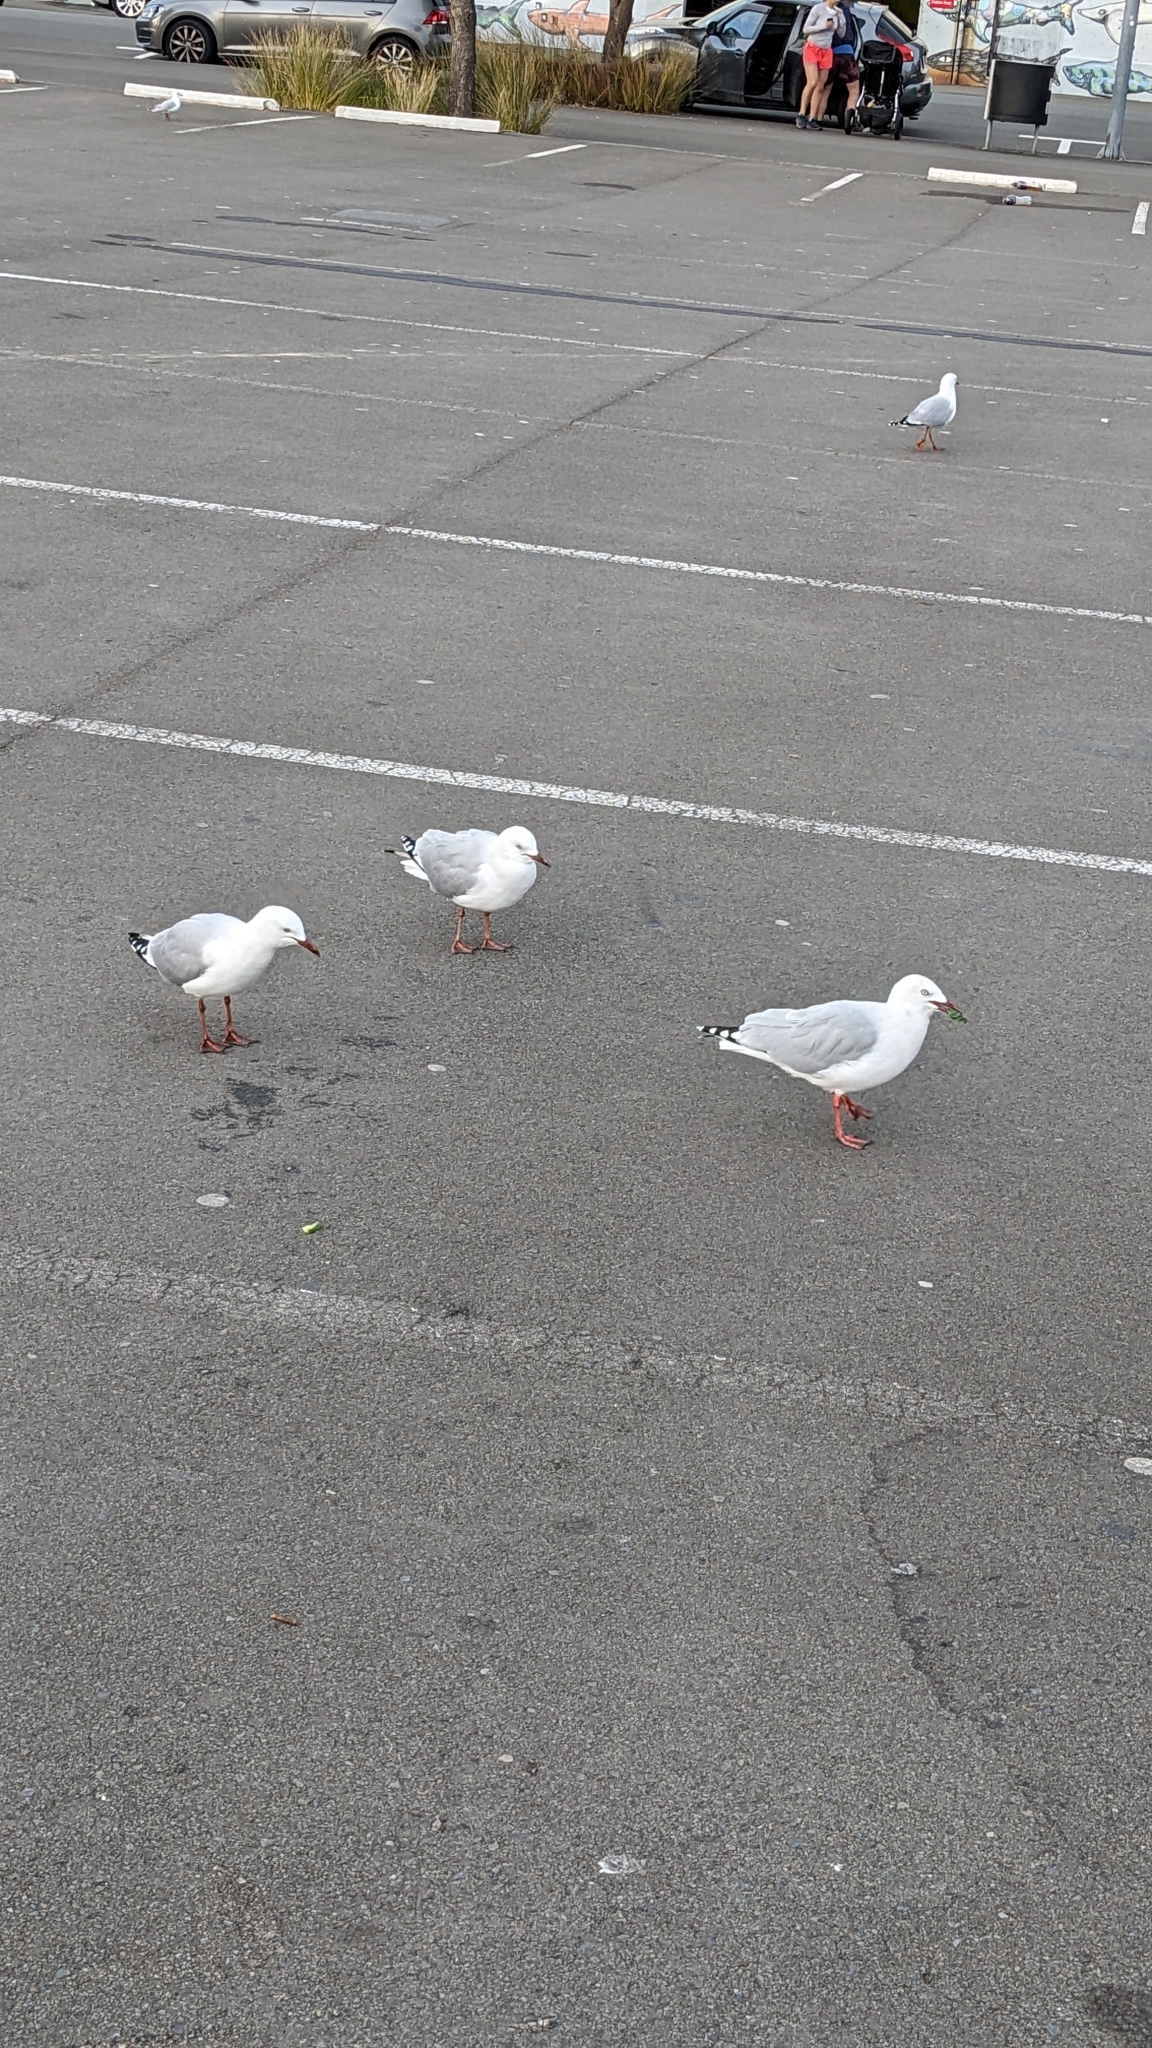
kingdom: Animalia
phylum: Chordata
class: Aves
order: Charadriiformes
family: Laridae
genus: Chroicocephalus
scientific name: Chroicocephalus novaehollandiae
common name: Silver gull
